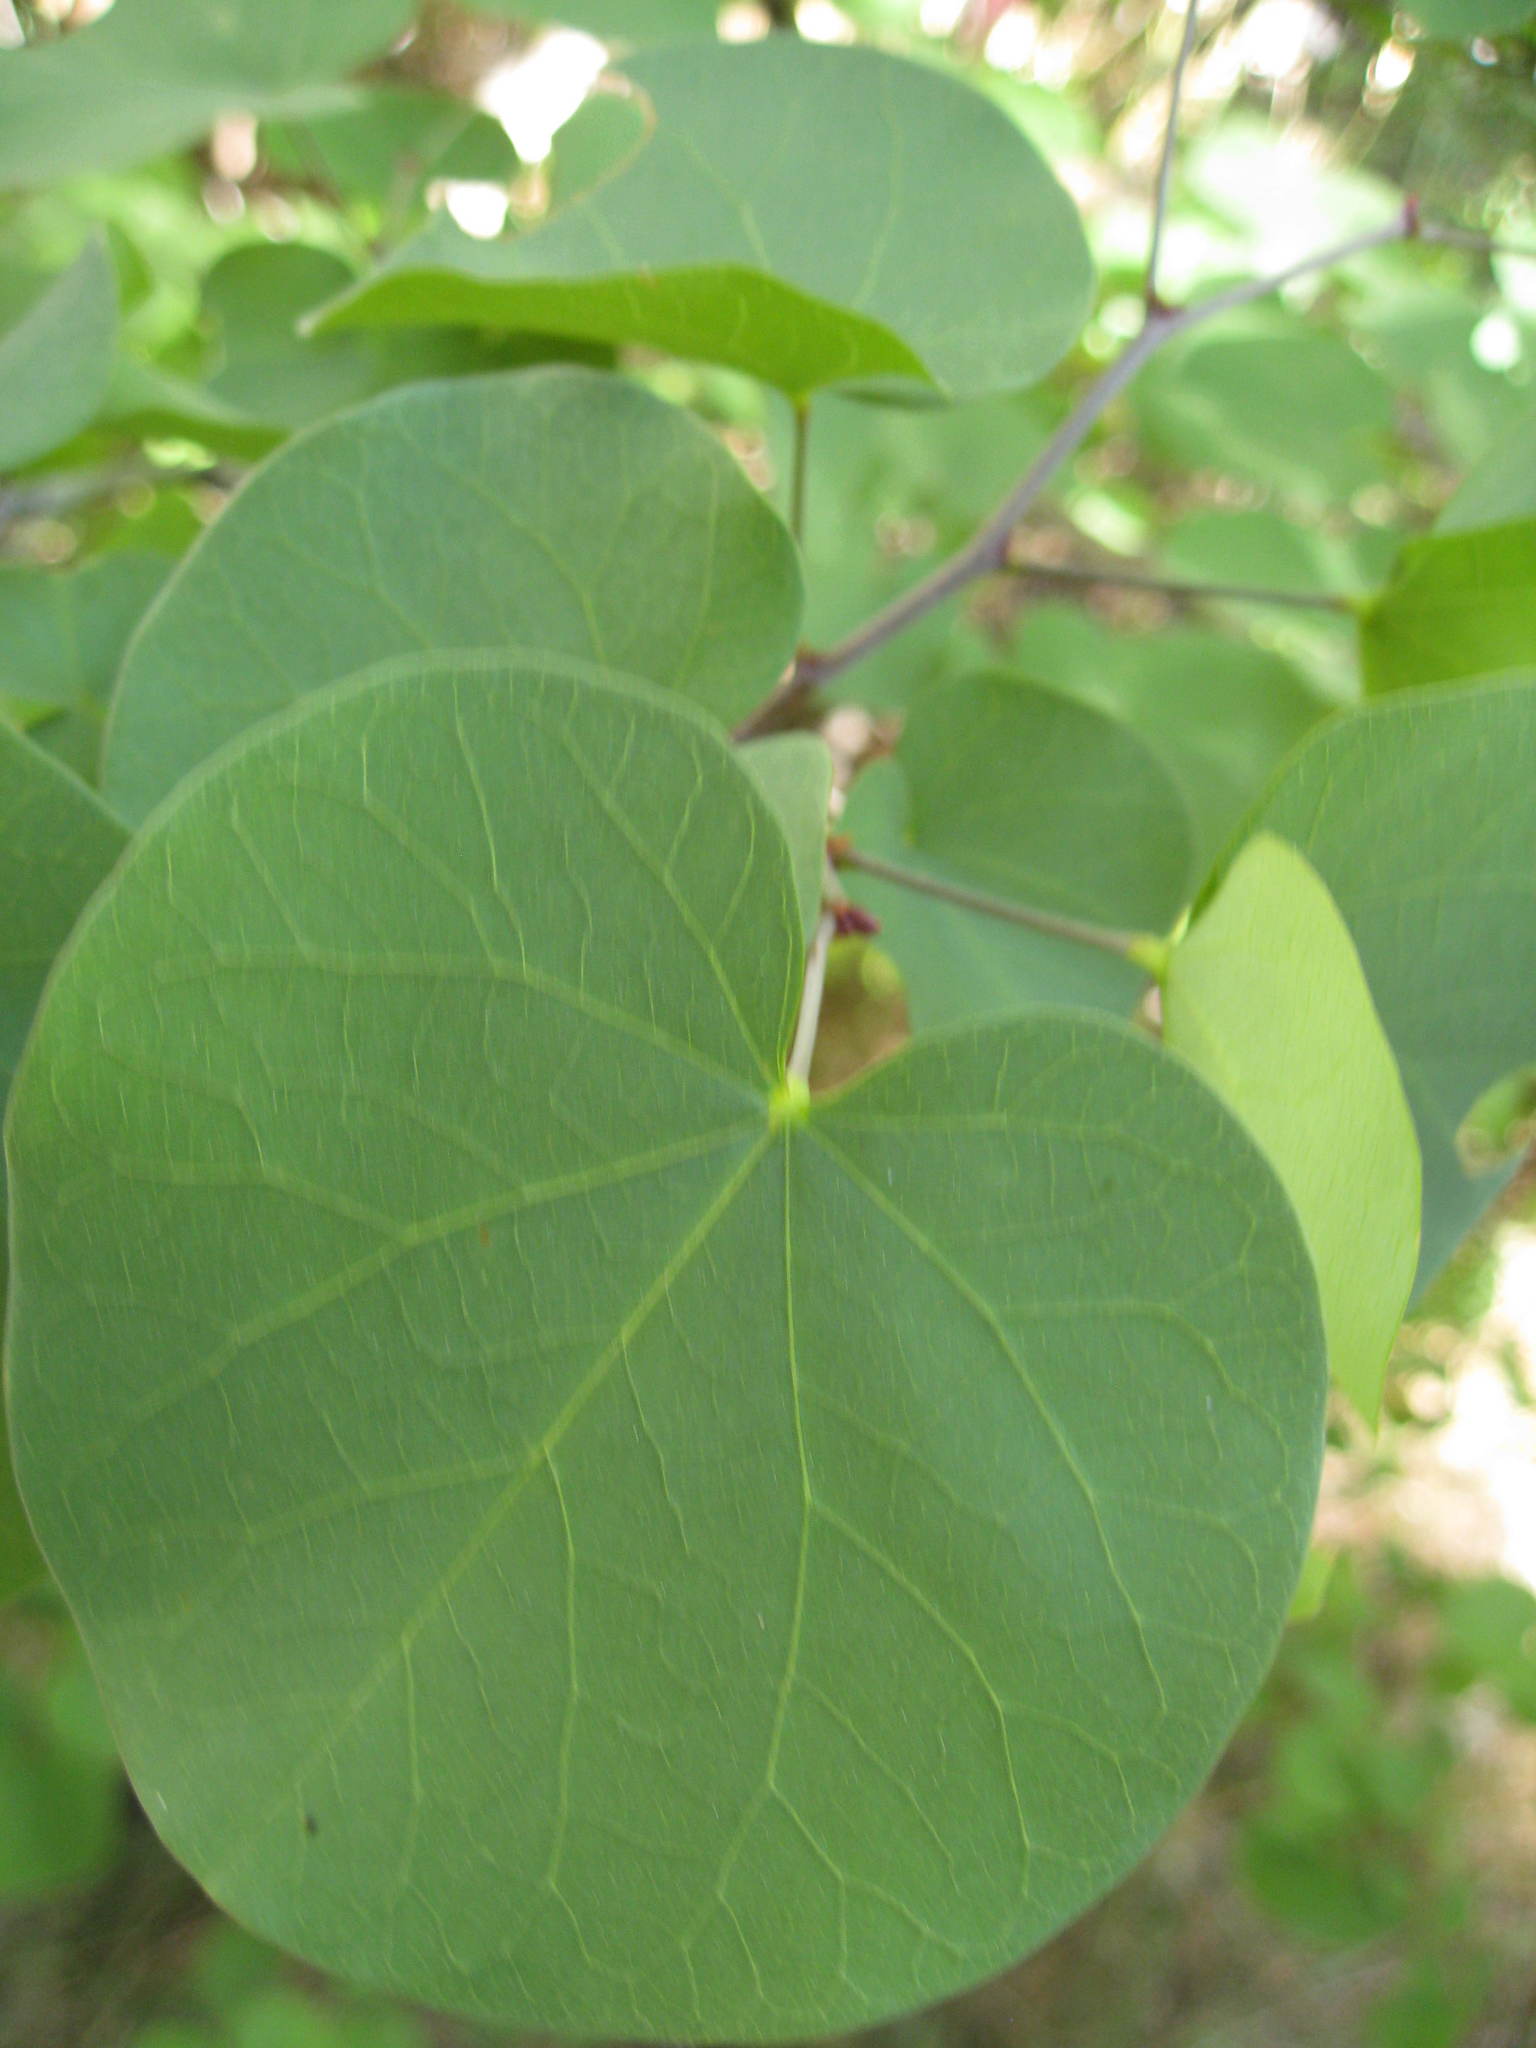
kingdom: Plantae
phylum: Tracheophyta
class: Magnoliopsida
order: Fabales
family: Fabaceae
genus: Cercis
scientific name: Cercis occidentalis
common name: California redbud
